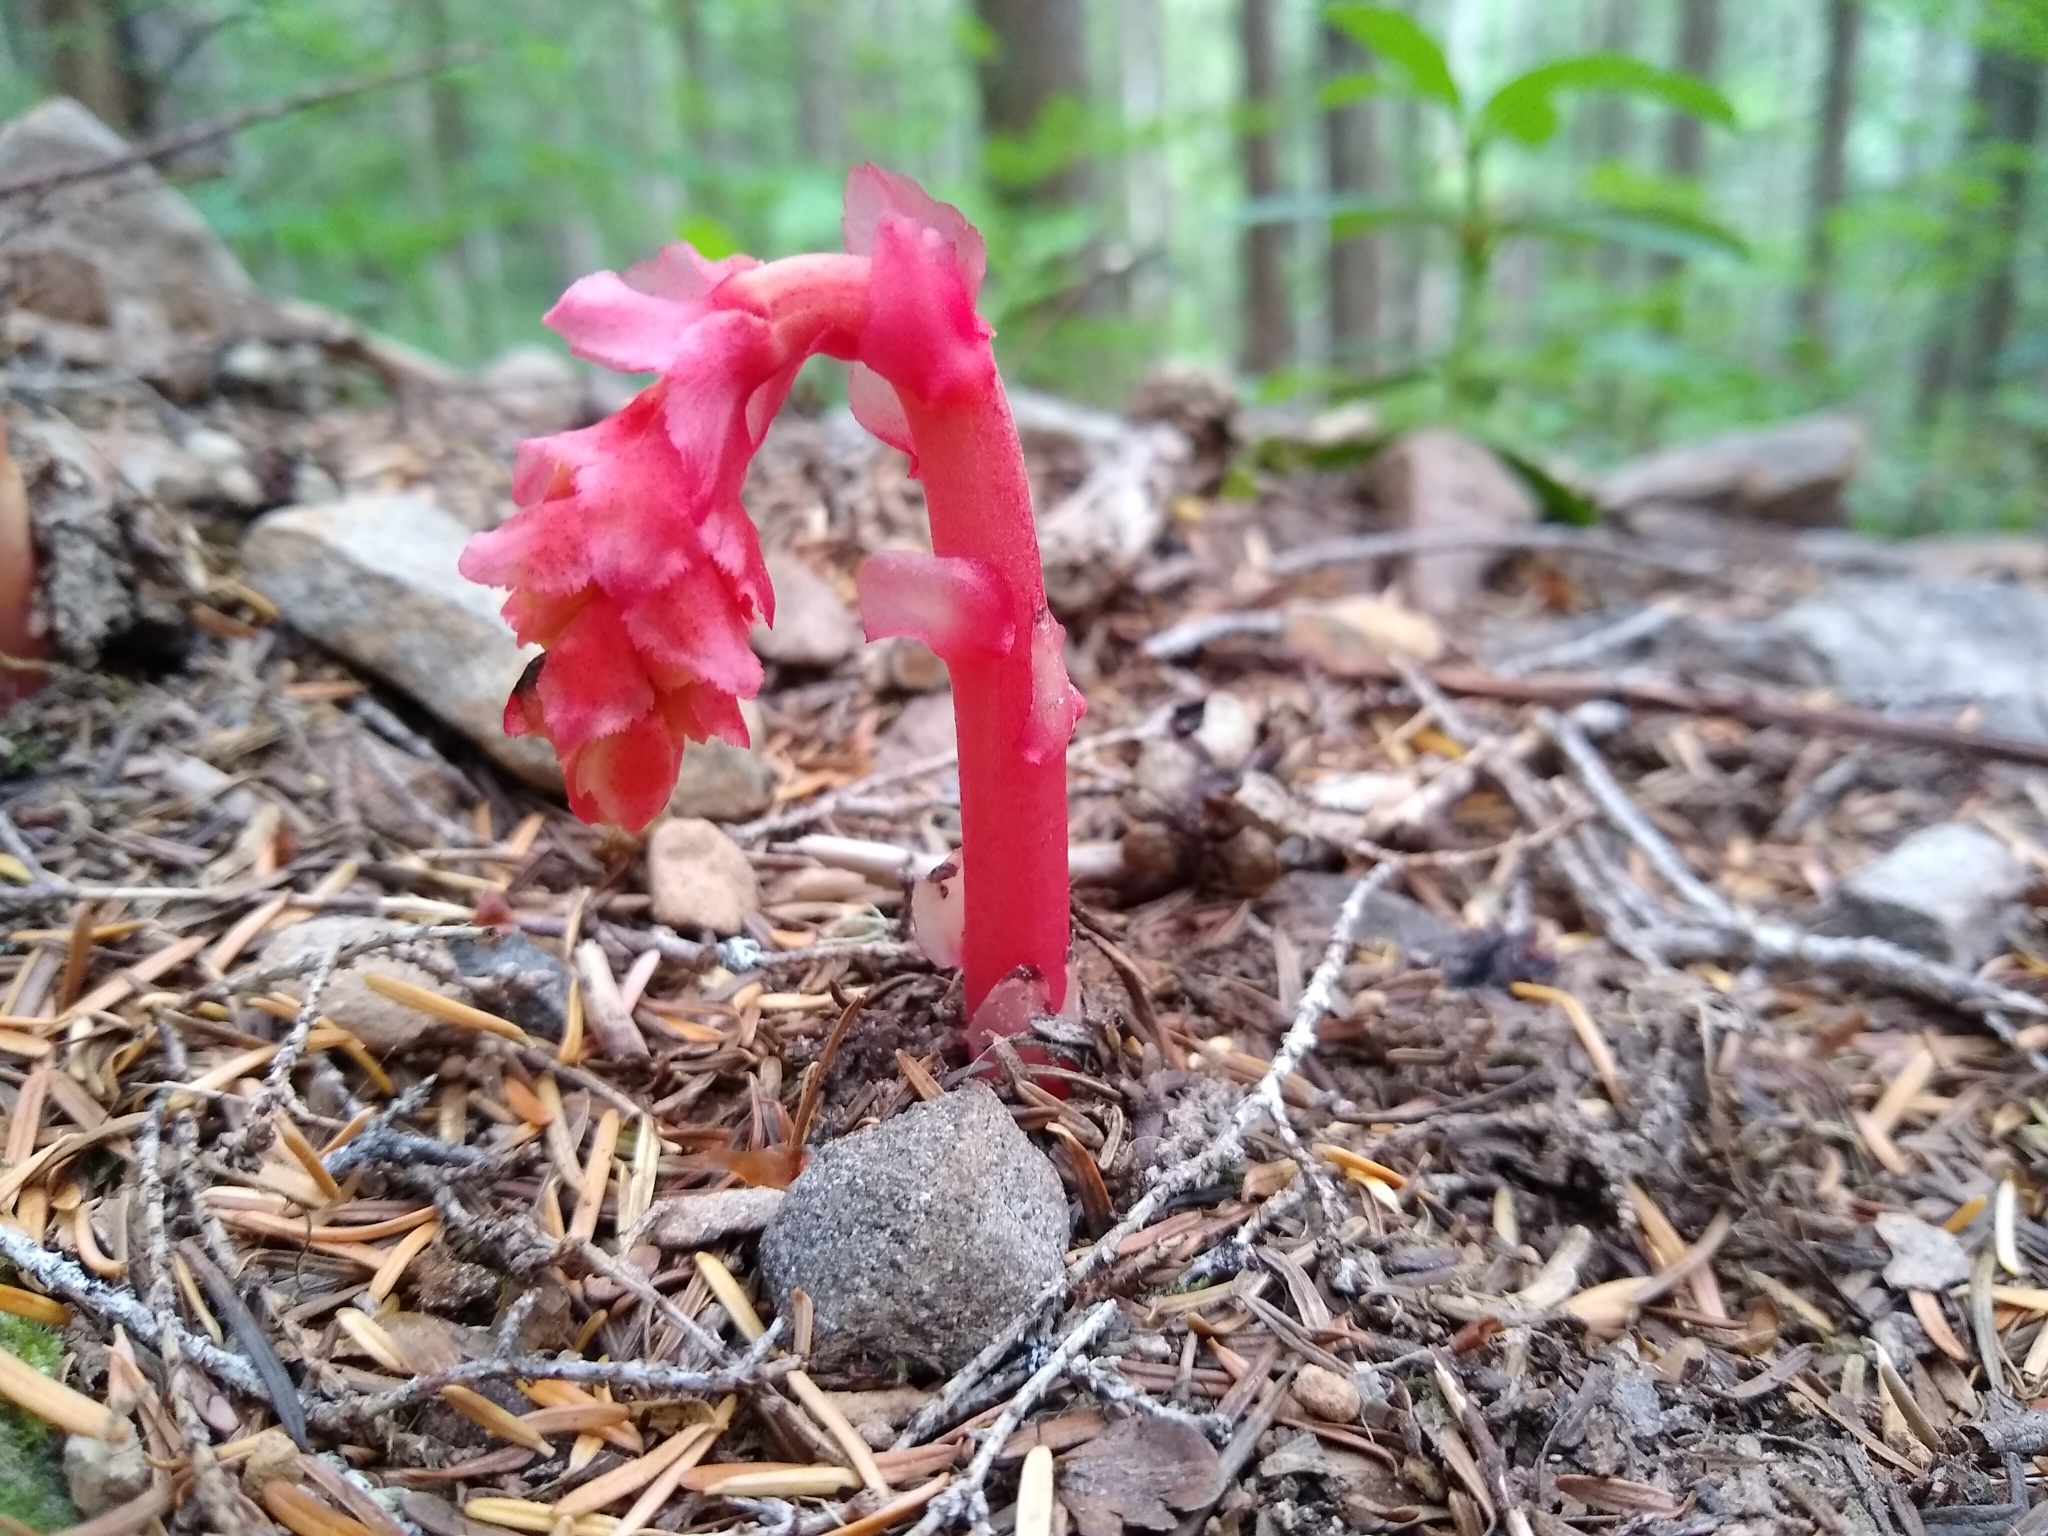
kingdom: Plantae
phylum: Tracheophyta
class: Magnoliopsida
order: Ericales
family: Ericaceae
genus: Hypopitys
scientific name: Hypopitys monotropa
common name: Yellow bird's-nest
